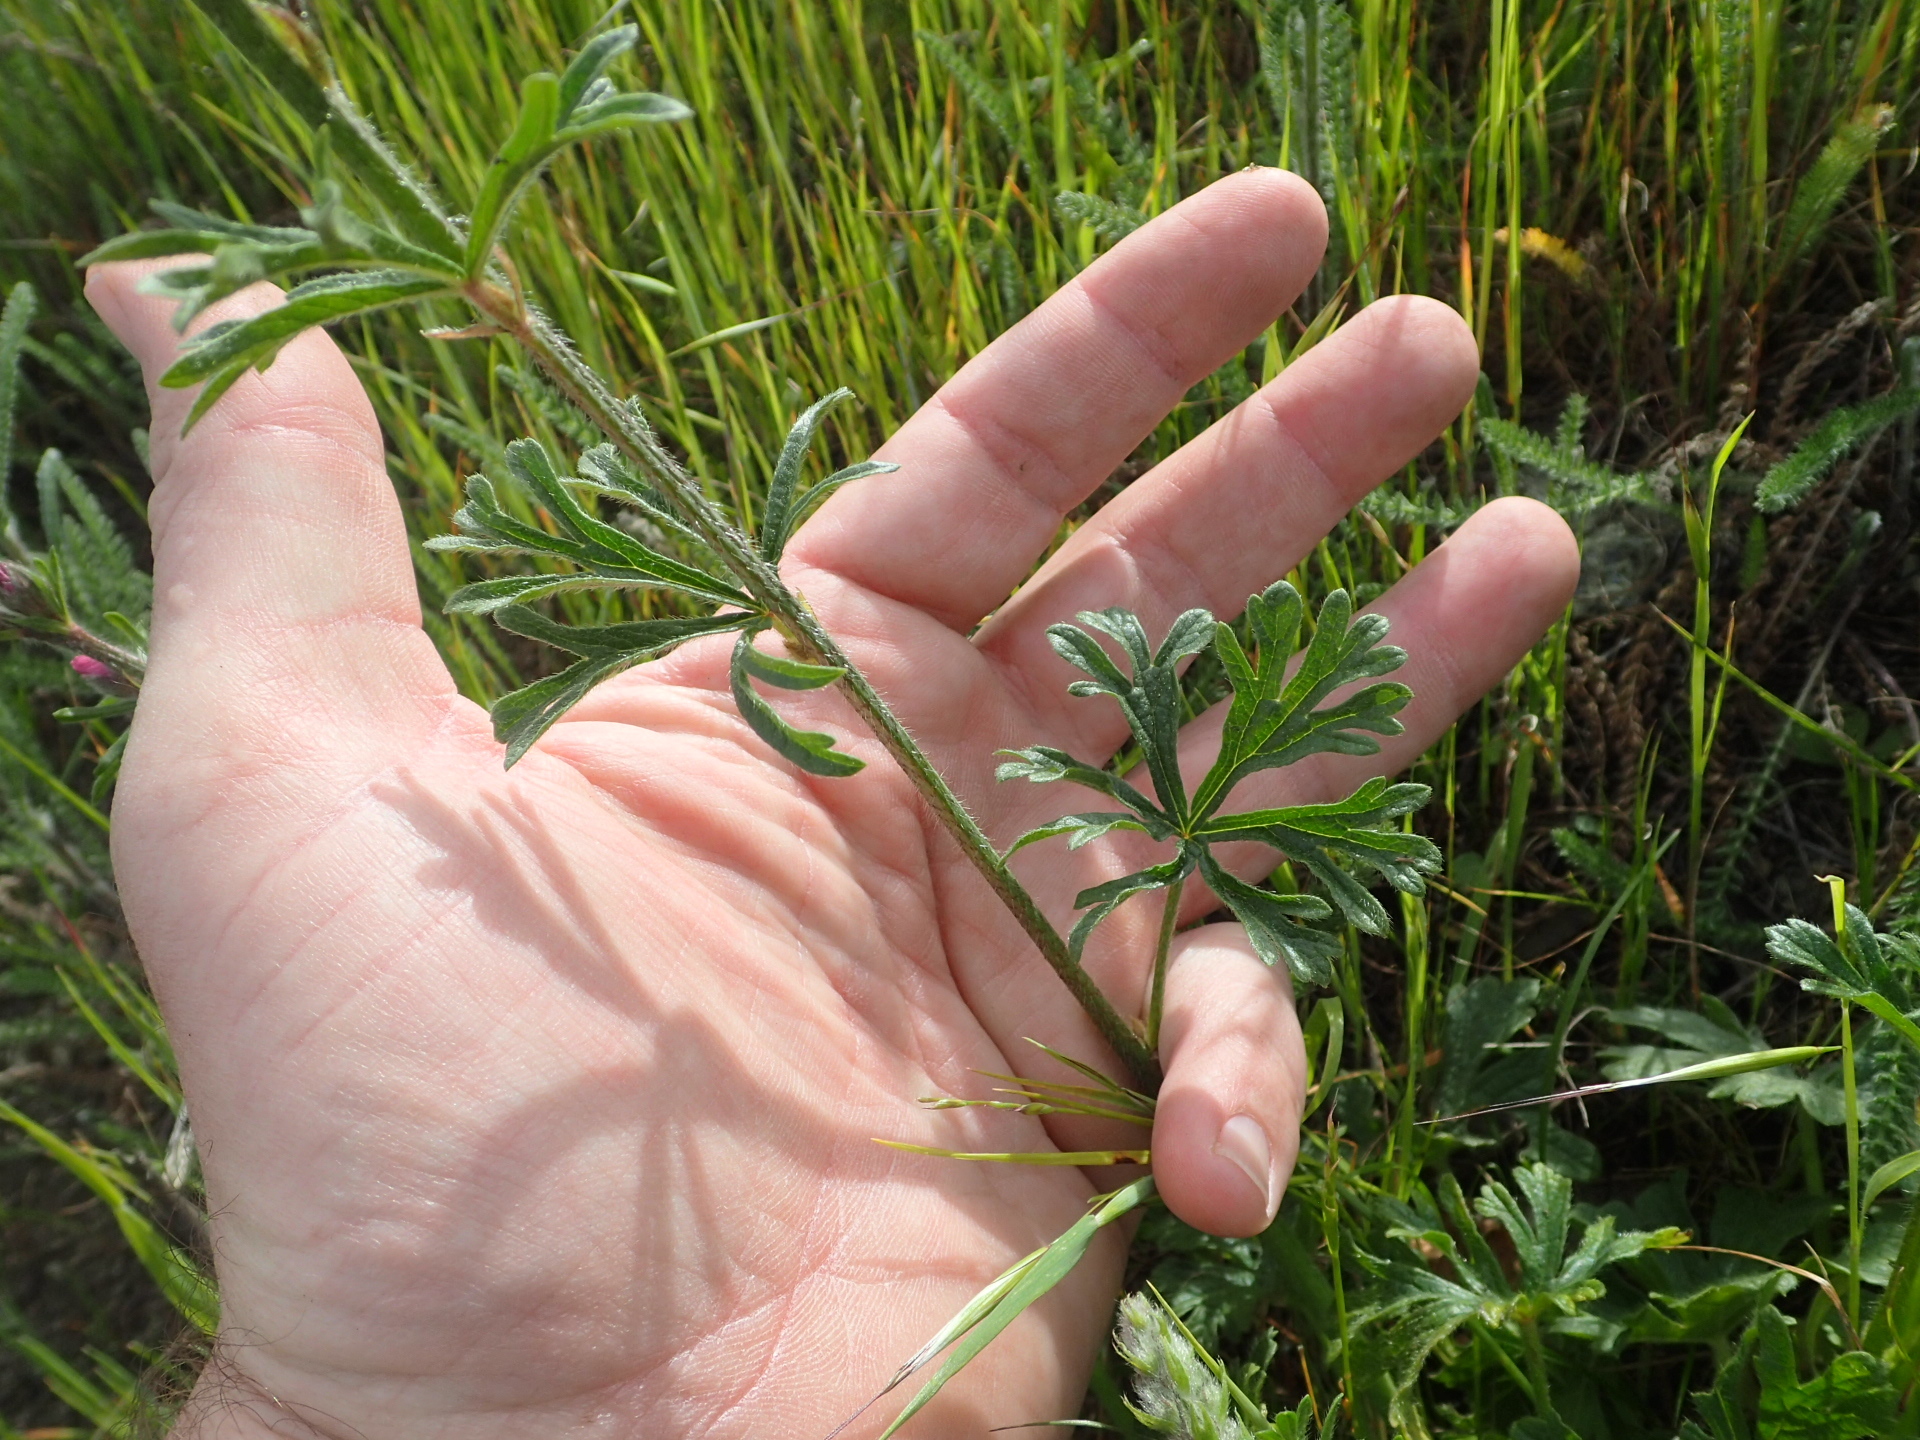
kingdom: Plantae
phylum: Tracheophyta
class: Magnoliopsida
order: Malvales
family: Malvaceae
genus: Sidalcea
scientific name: Sidalcea malviflora
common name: Greek mallow
